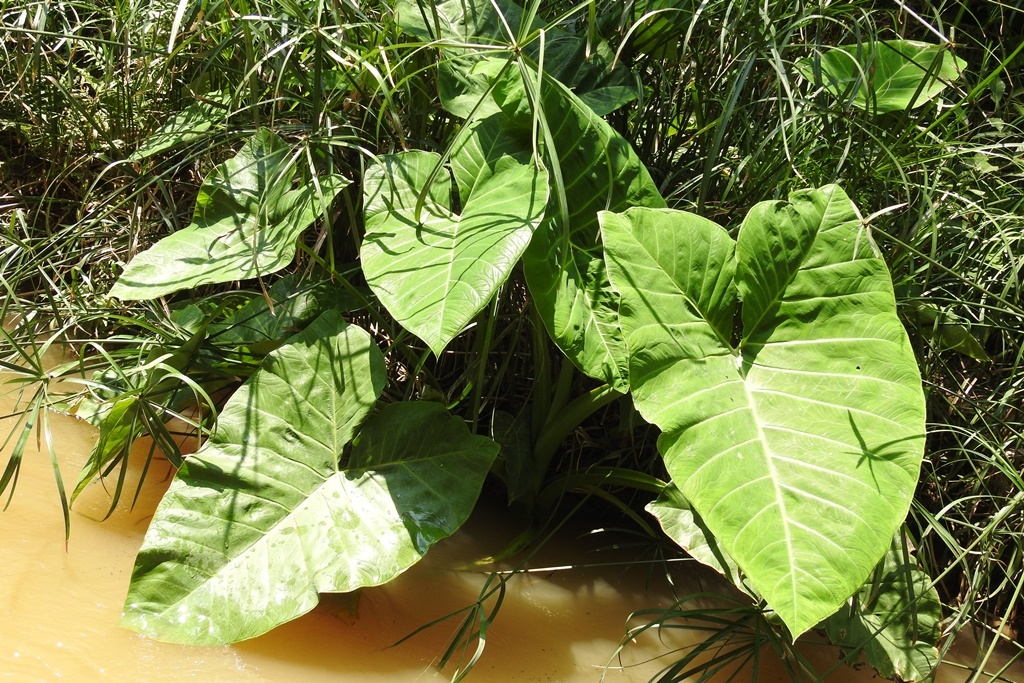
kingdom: Plantae
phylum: Tracheophyta
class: Liliopsida
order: Alismatales
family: Araceae
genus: Xanthosoma
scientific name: Xanthosoma robustum
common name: Capote
